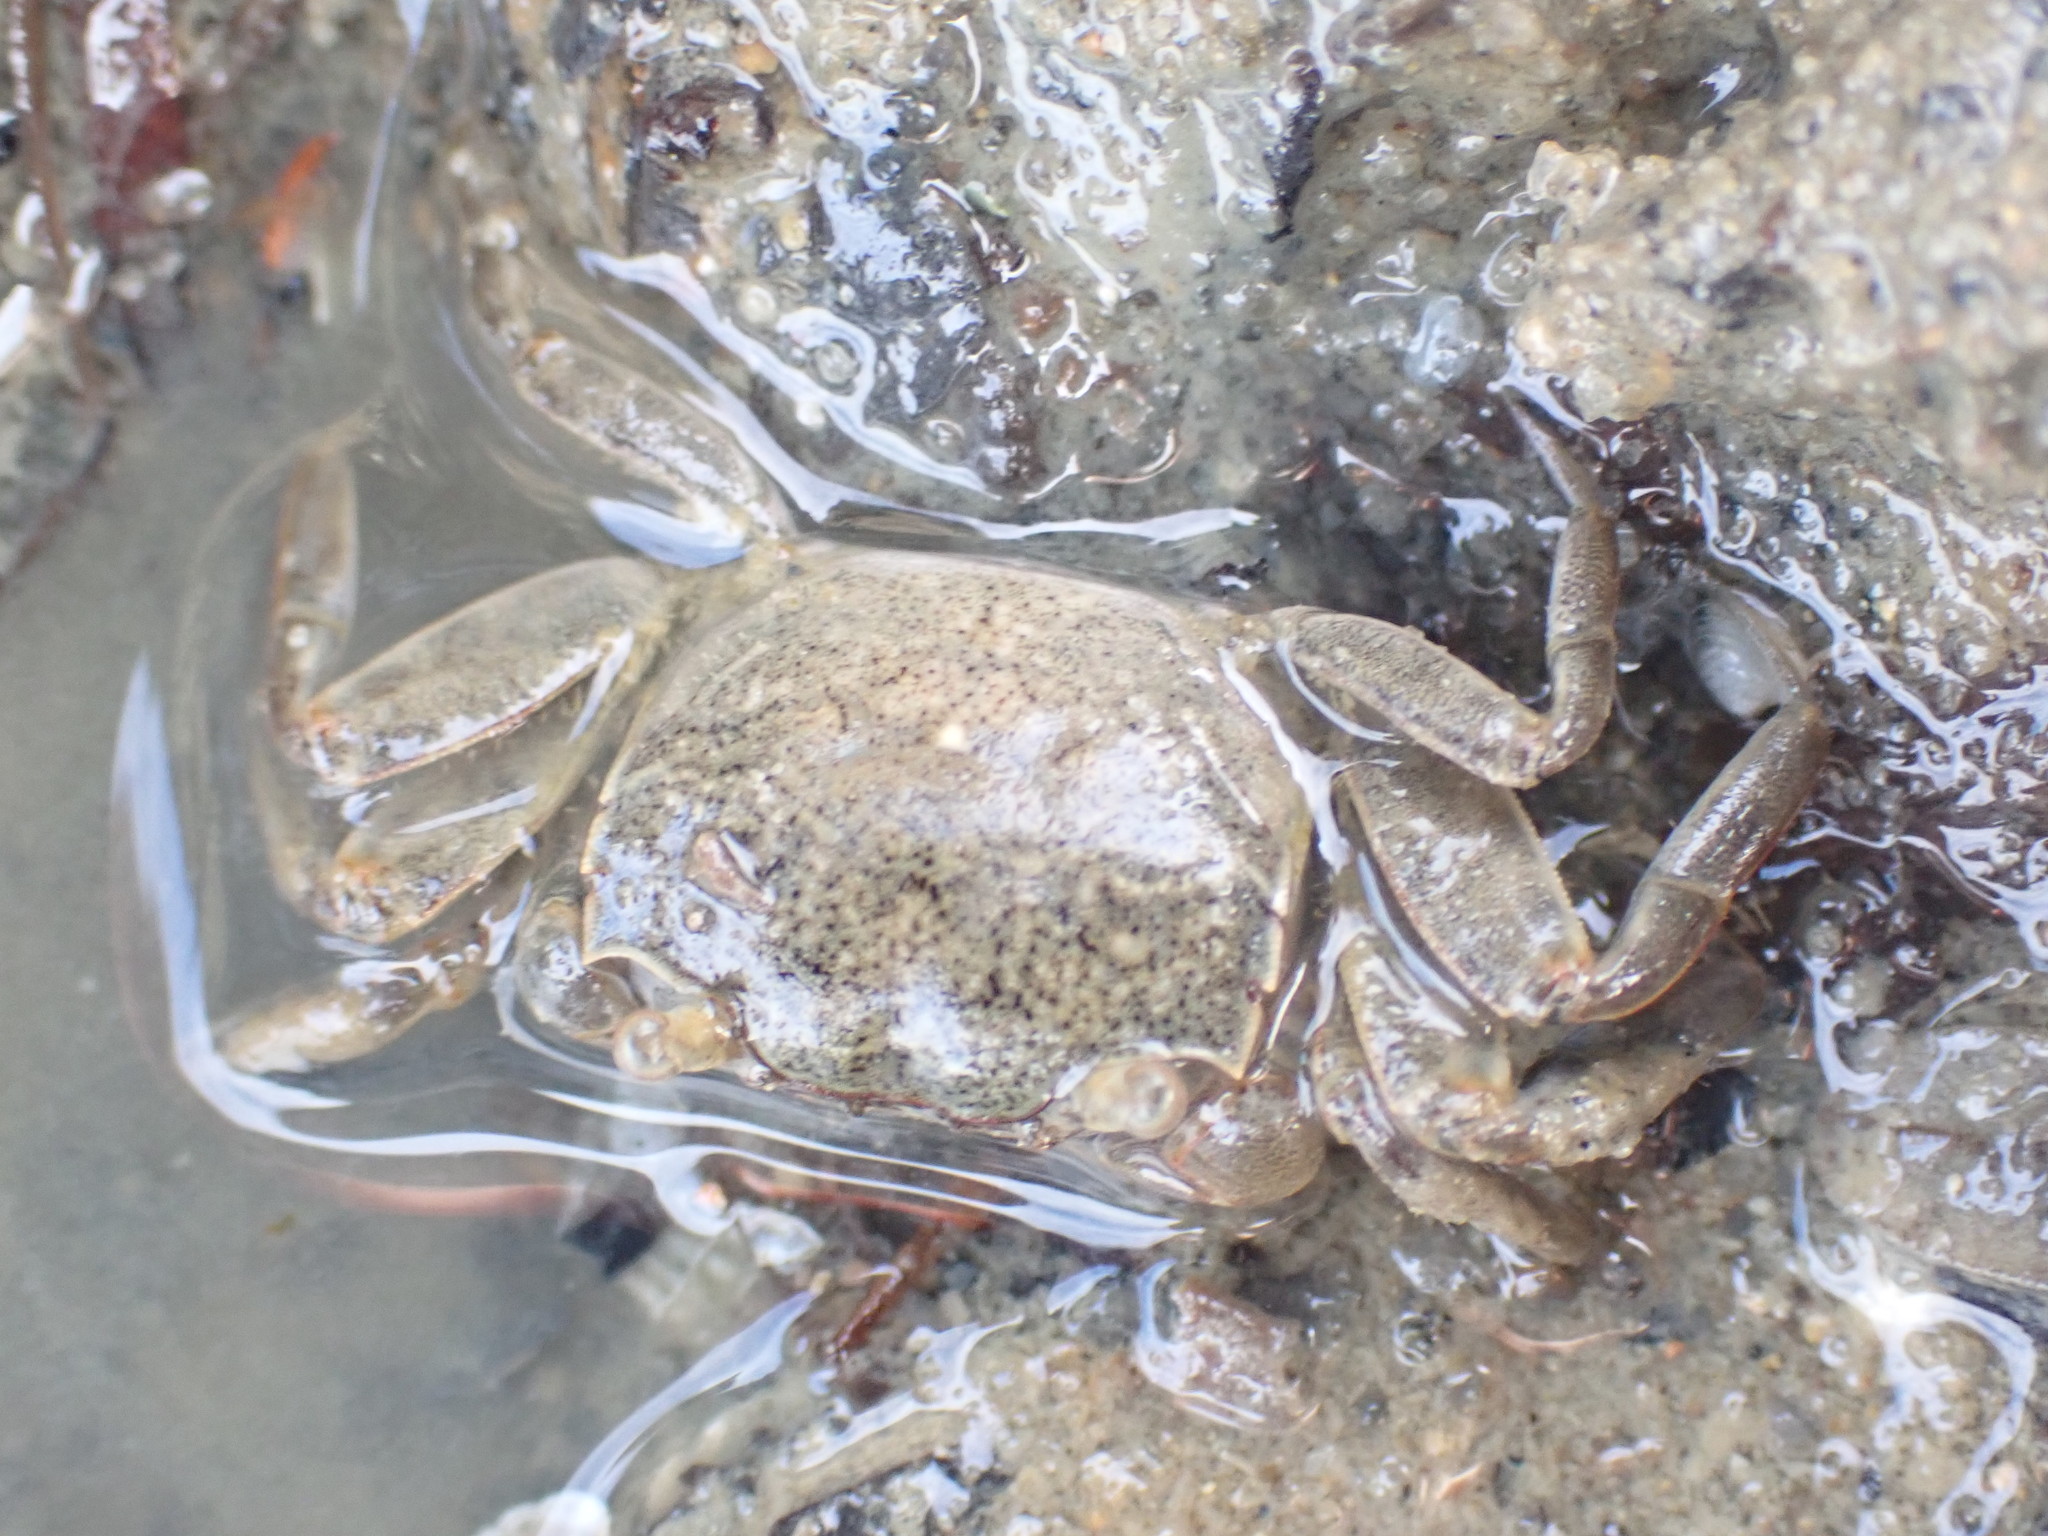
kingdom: Animalia
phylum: Arthropoda
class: Malacostraca
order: Decapoda
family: Varunidae
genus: Austrohelice
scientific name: Austrohelice crassa
